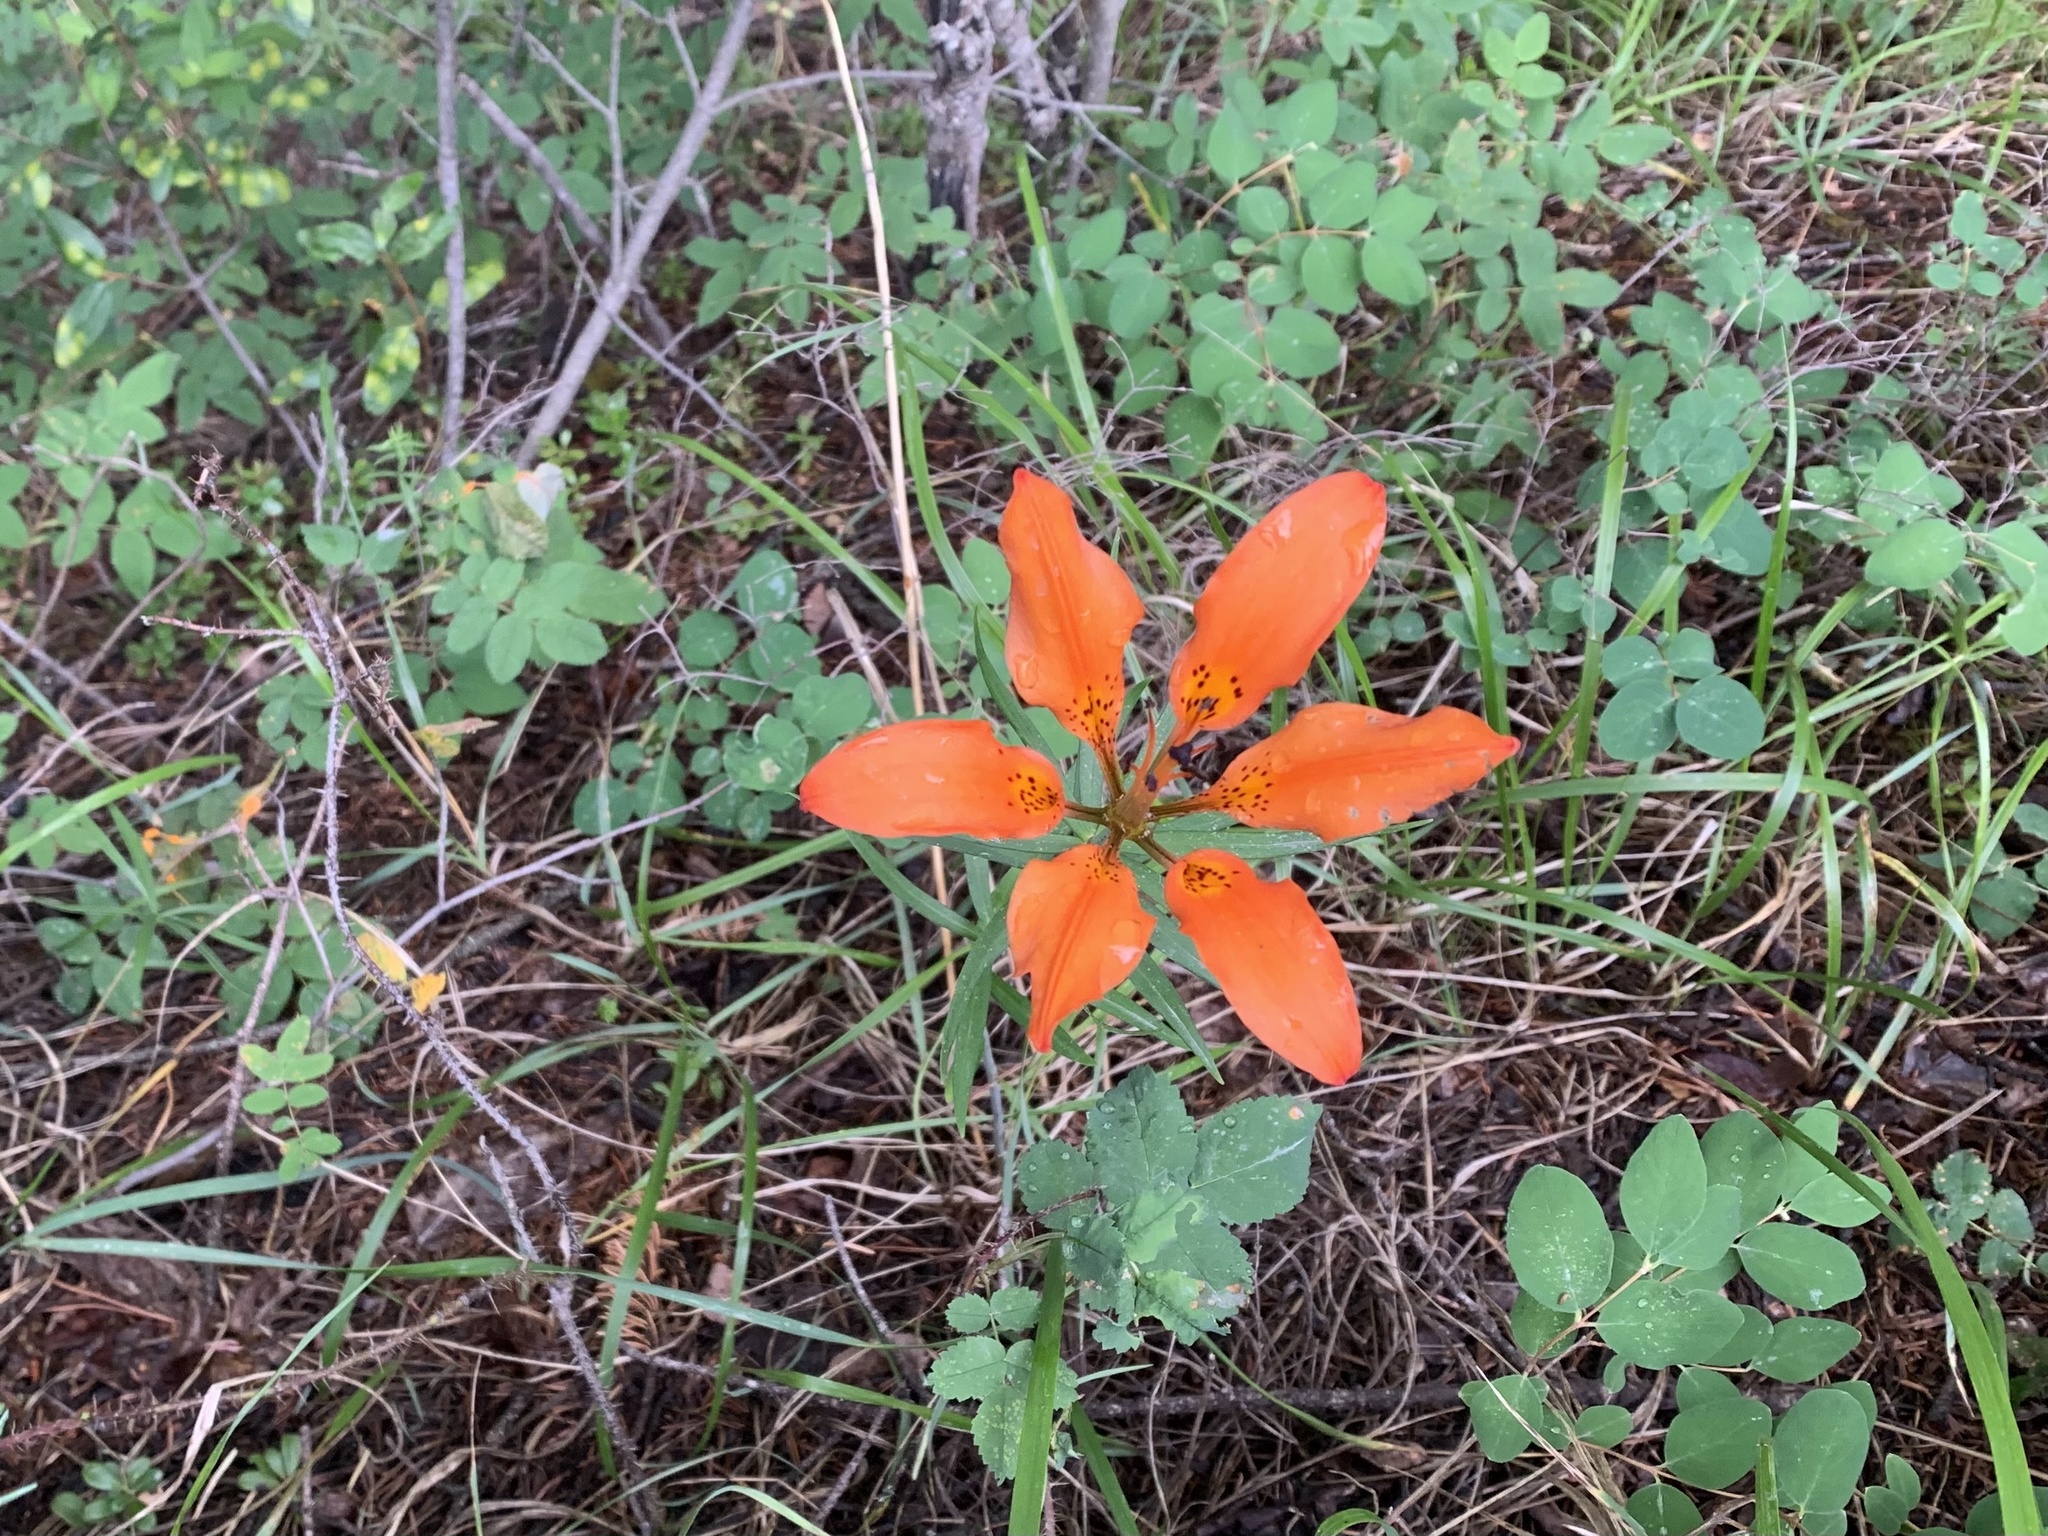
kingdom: Plantae
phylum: Tracheophyta
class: Liliopsida
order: Liliales
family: Liliaceae
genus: Lilium
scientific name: Lilium philadelphicum
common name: Red lily
